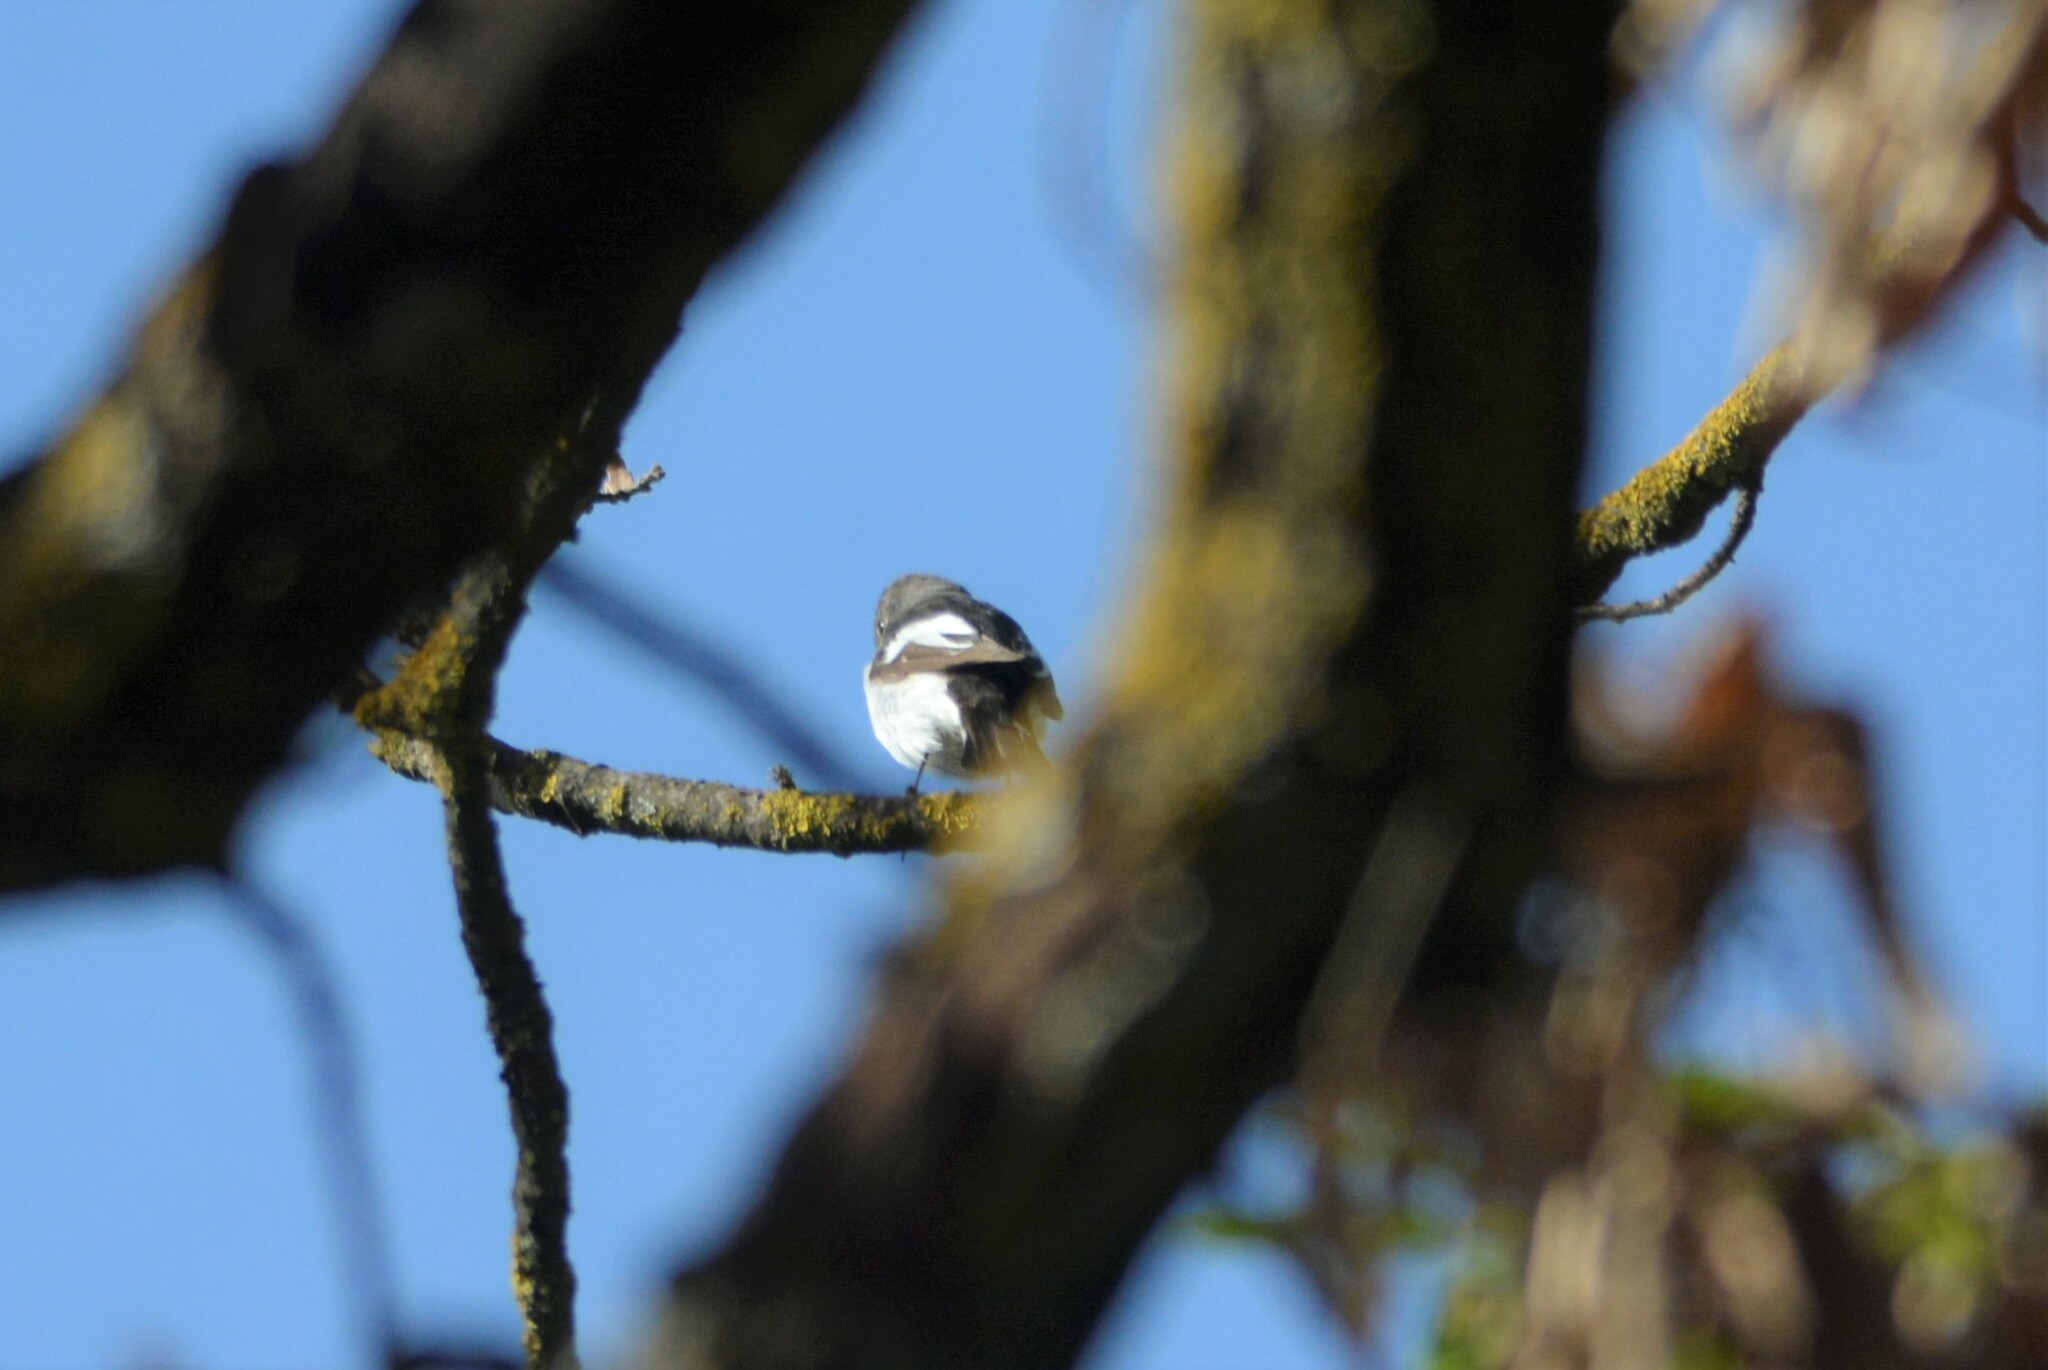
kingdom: Animalia
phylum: Chordata
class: Aves
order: Passeriformes
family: Muscicapidae
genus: Ficedula
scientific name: Ficedula hypoleuca
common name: European pied flycatcher
